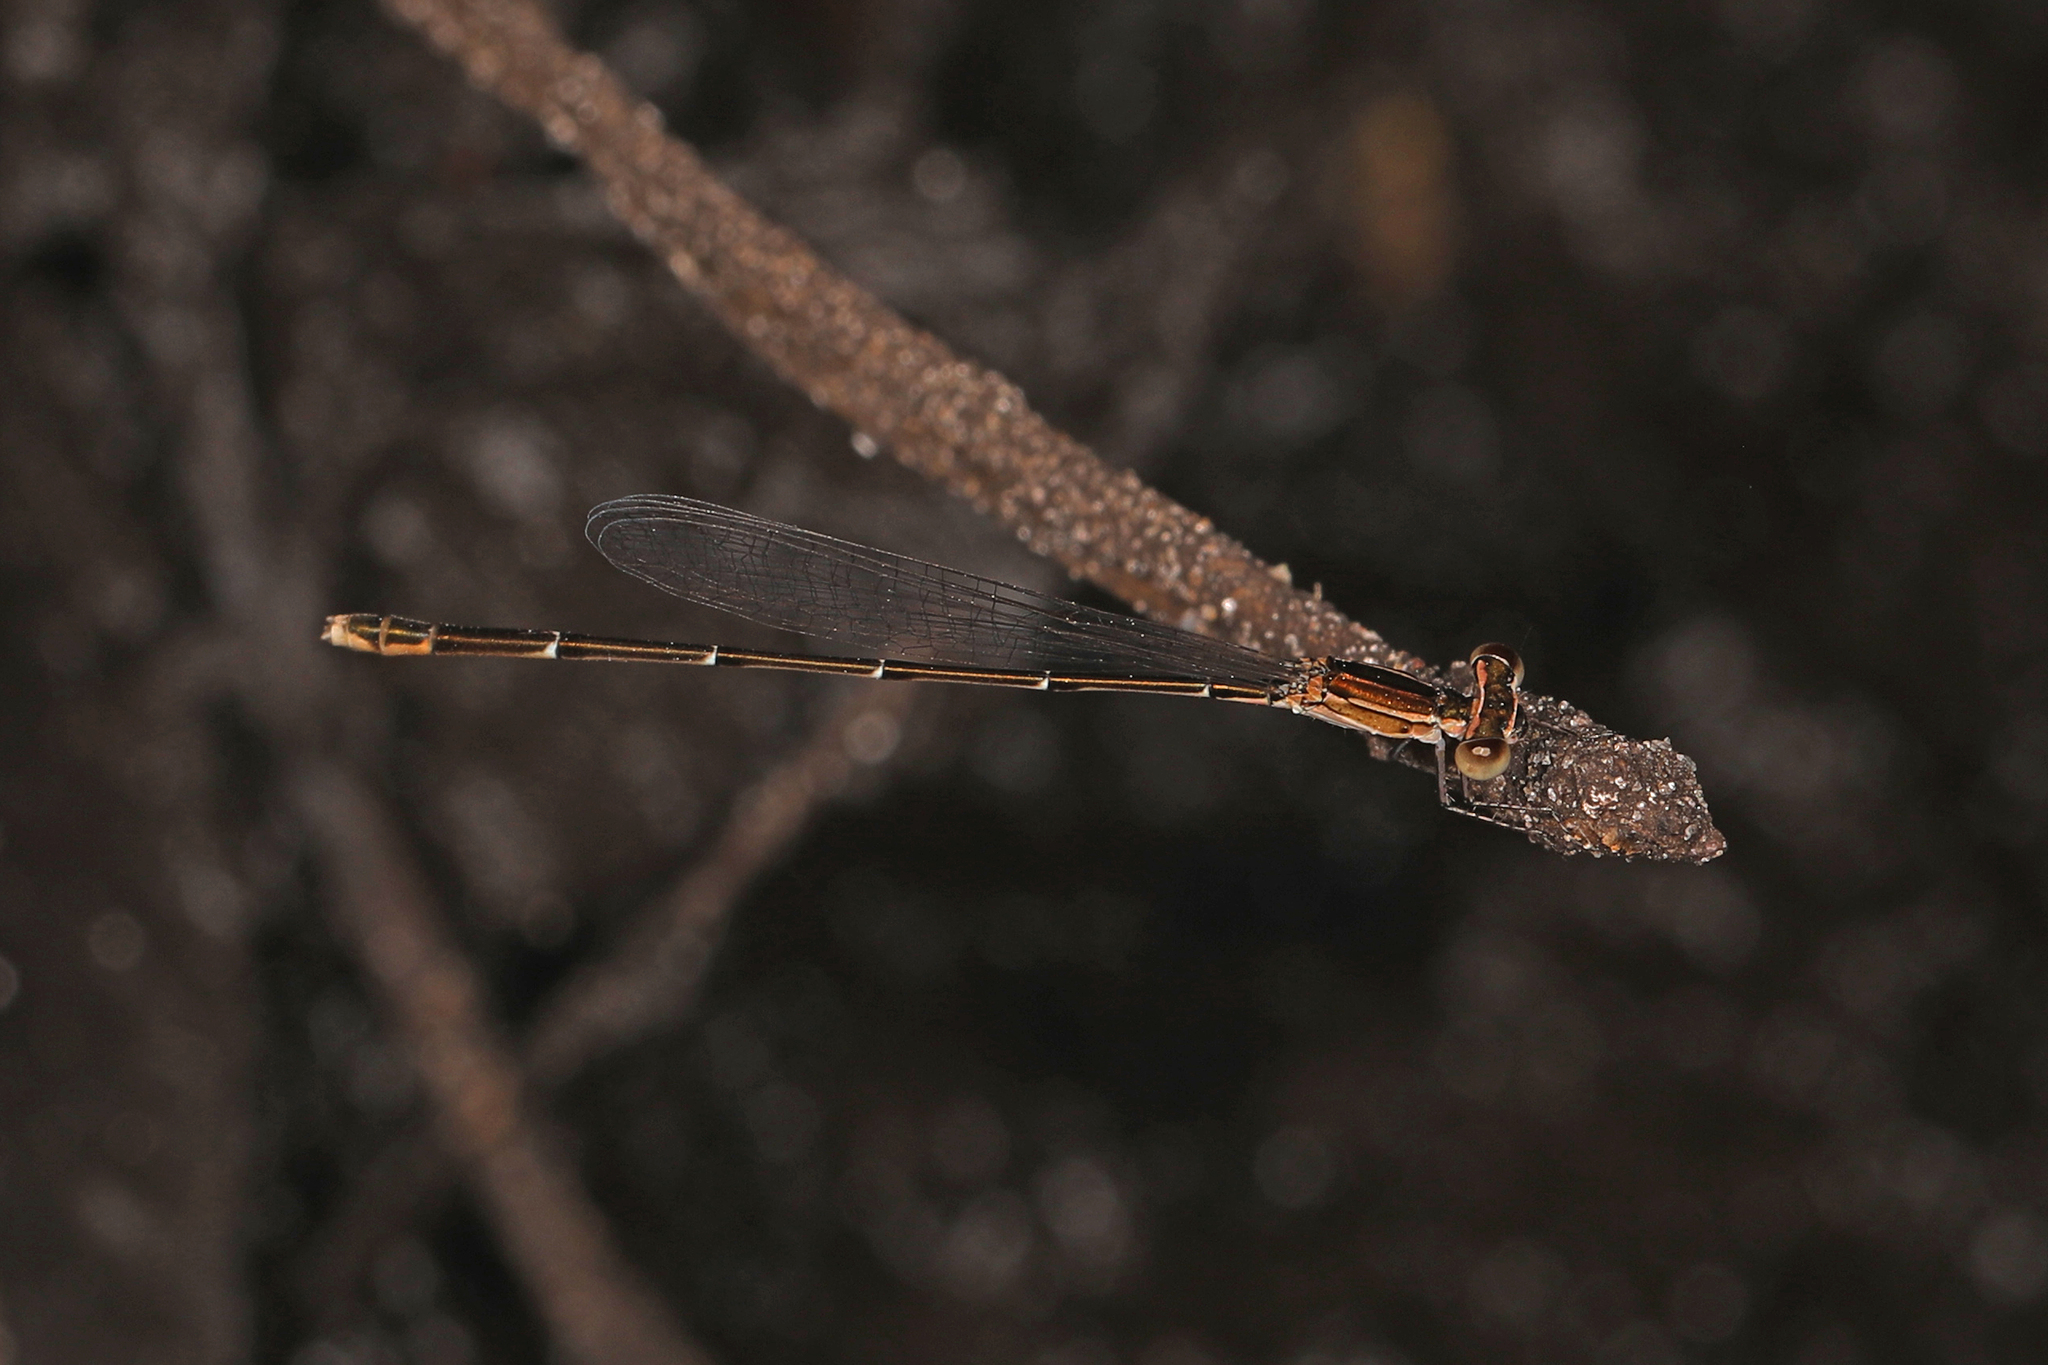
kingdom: Animalia
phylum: Arthropoda
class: Insecta
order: Odonata
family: Coenagrionidae
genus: Nehalennia
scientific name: Nehalennia pallidula
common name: Everglades sprite
